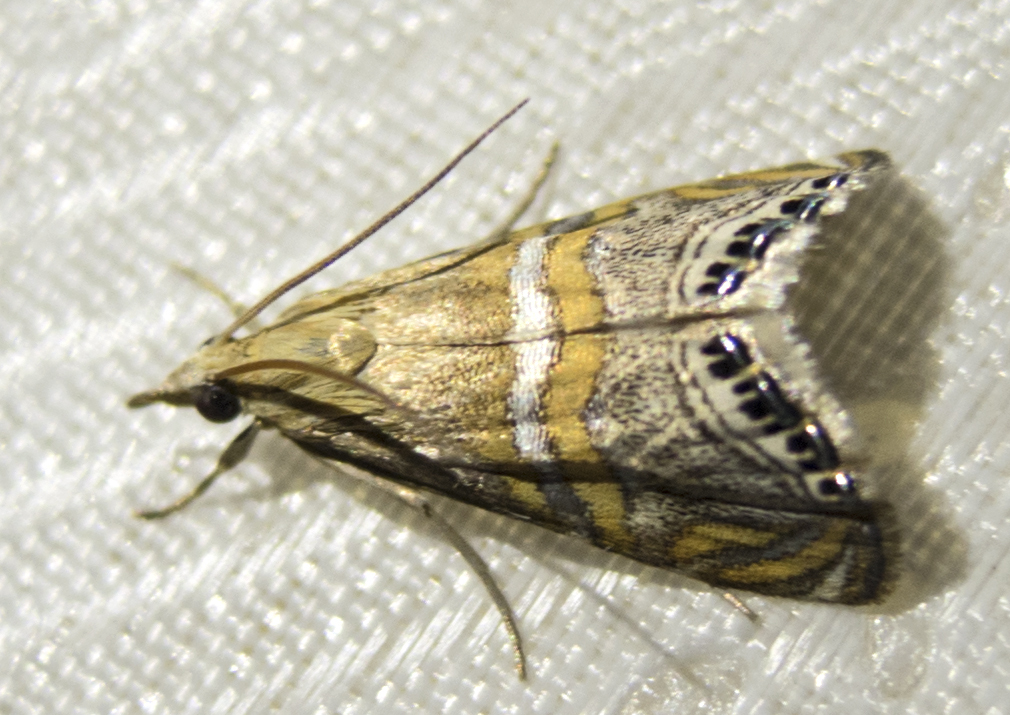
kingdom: Animalia
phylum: Arthropoda
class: Insecta
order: Lepidoptera
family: Crambidae
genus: Euchromius
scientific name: Euchromius bella
